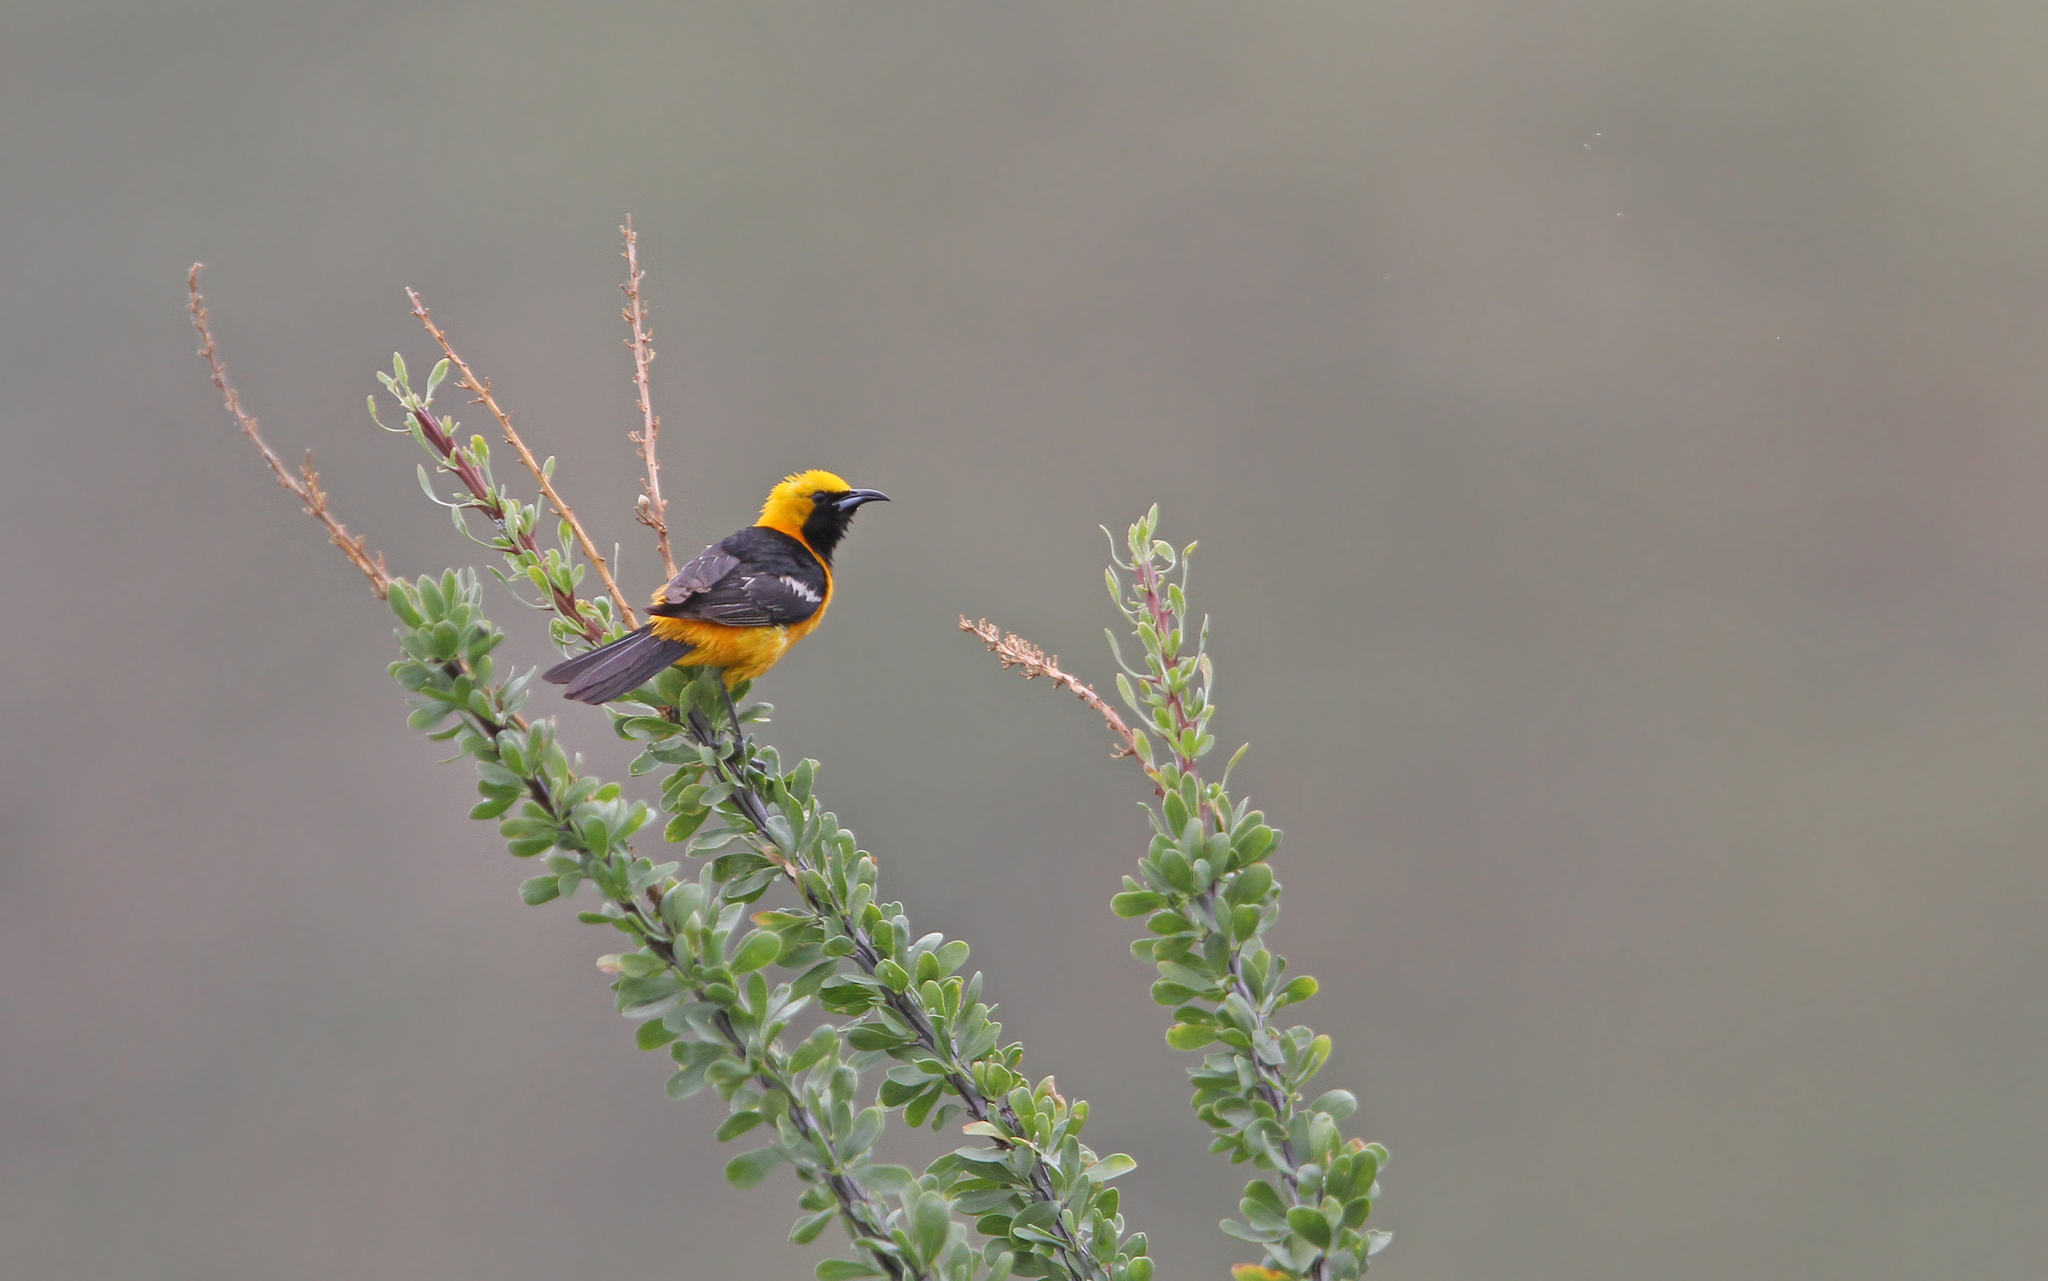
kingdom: Animalia
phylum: Chordata
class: Aves
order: Passeriformes
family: Icteridae
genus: Icterus
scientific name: Icterus cucullatus
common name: Hooded oriole
